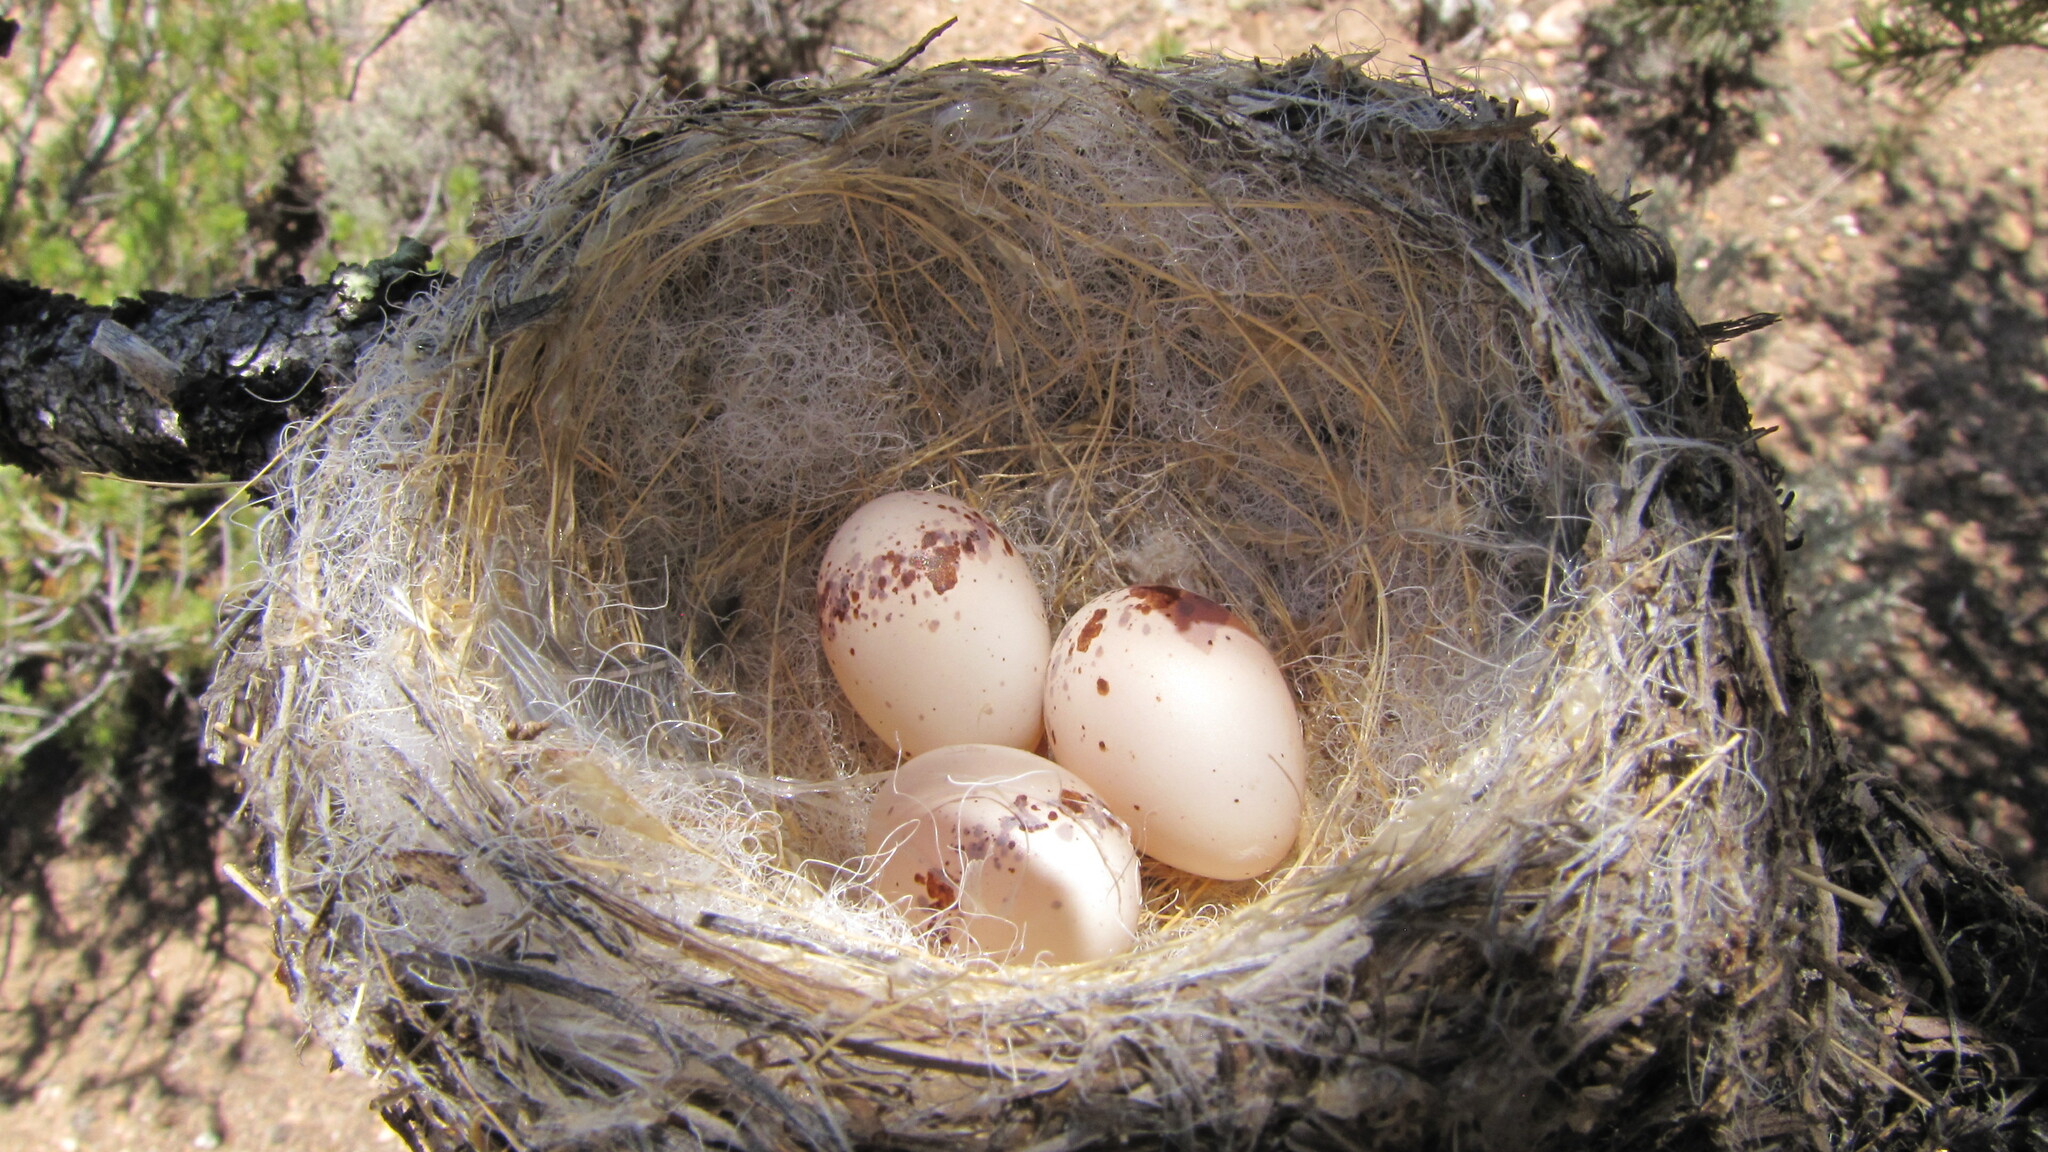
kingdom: Animalia
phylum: Chordata
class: Aves
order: Passeriformes
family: Tyrannidae
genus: Contopus
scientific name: Contopus sordidulus
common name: Western wood-pewee
